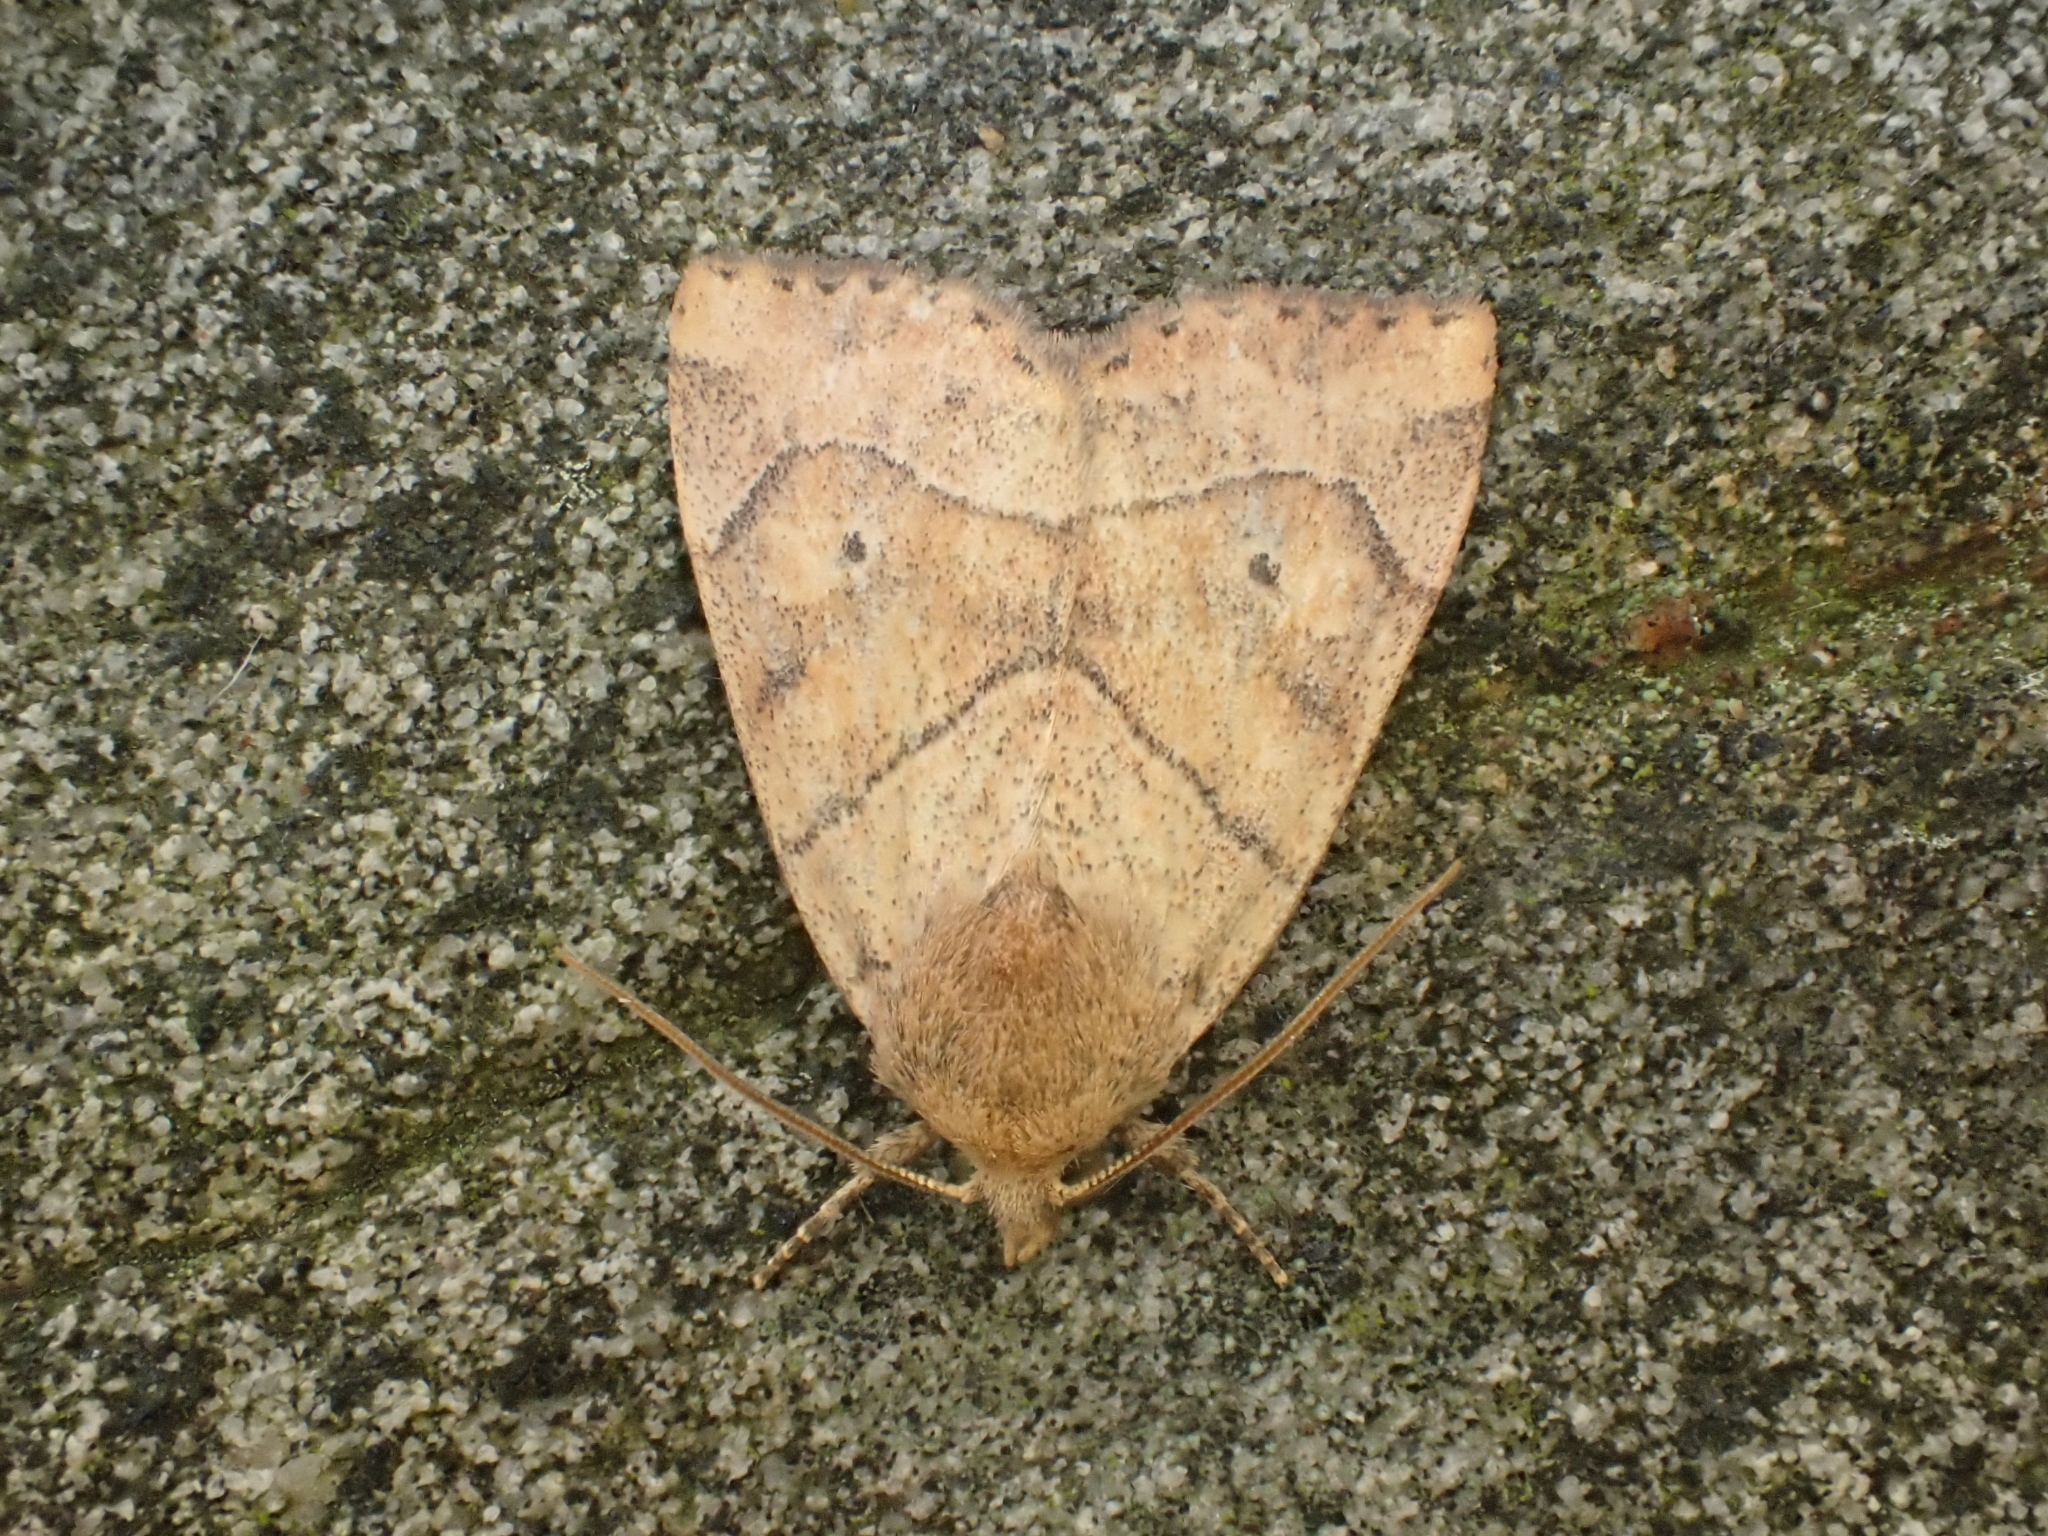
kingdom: Animalia
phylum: Arthropoda
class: Insecta
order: Lepidoptera
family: Noctuidae
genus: Cosmia
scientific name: Cosmia trapezina
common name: Dun-bar
